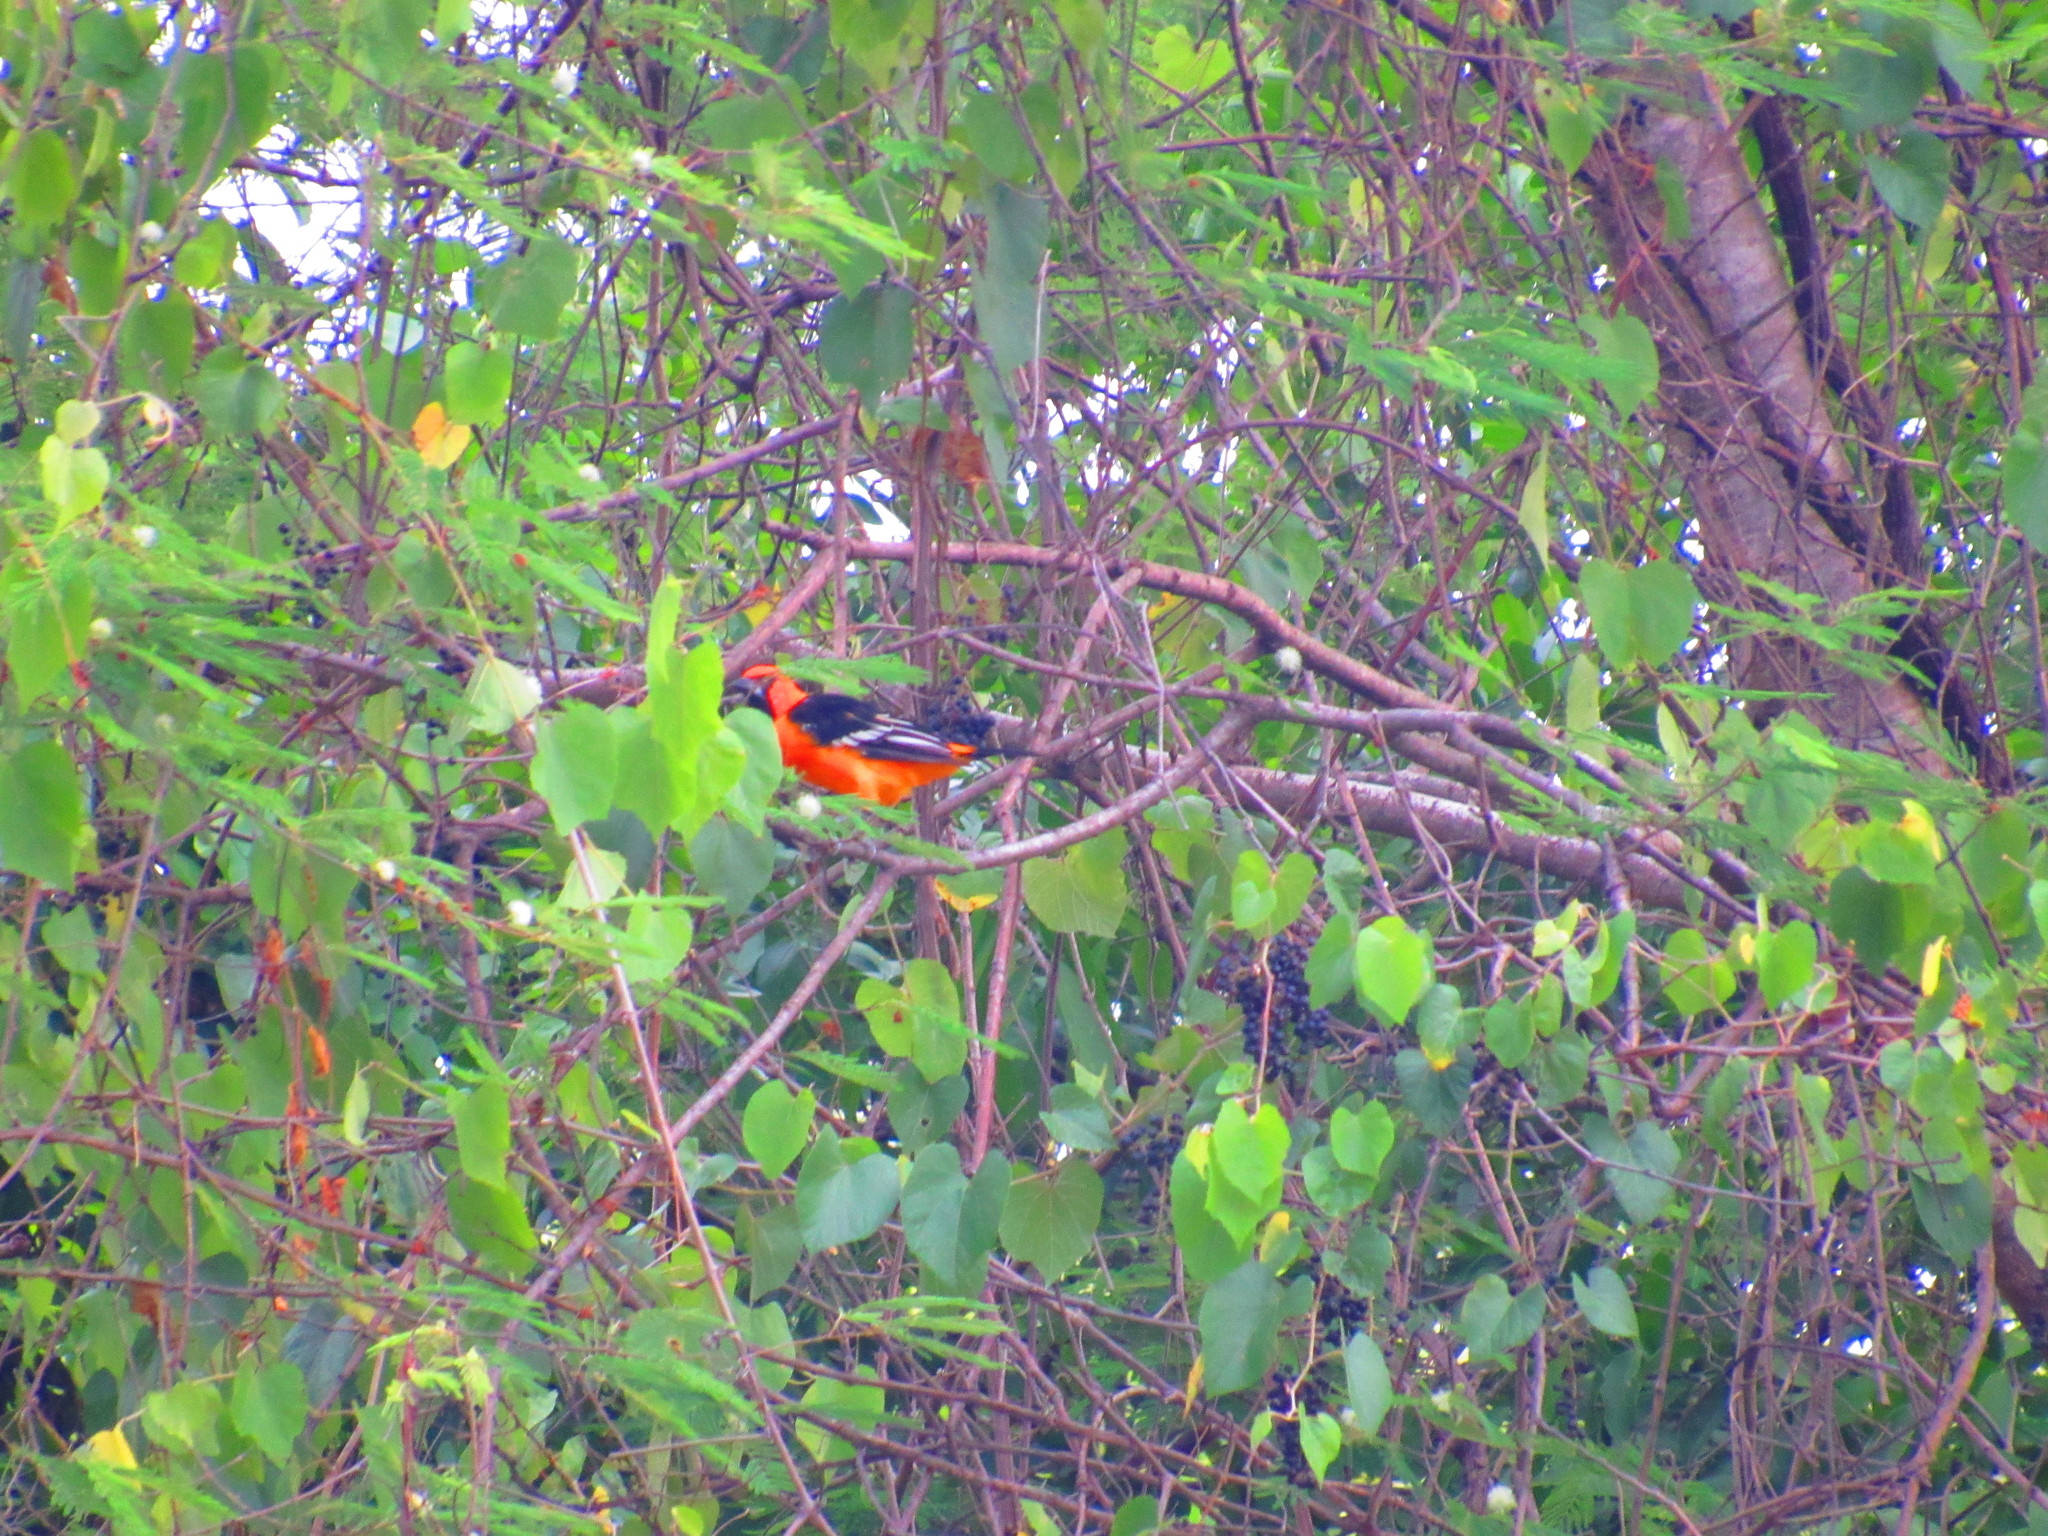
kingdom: Animalia
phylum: Chordata
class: Aves
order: Passeriformes
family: Icteridae
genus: Icterus
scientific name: Icterus gularis
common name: Altamira oriole
